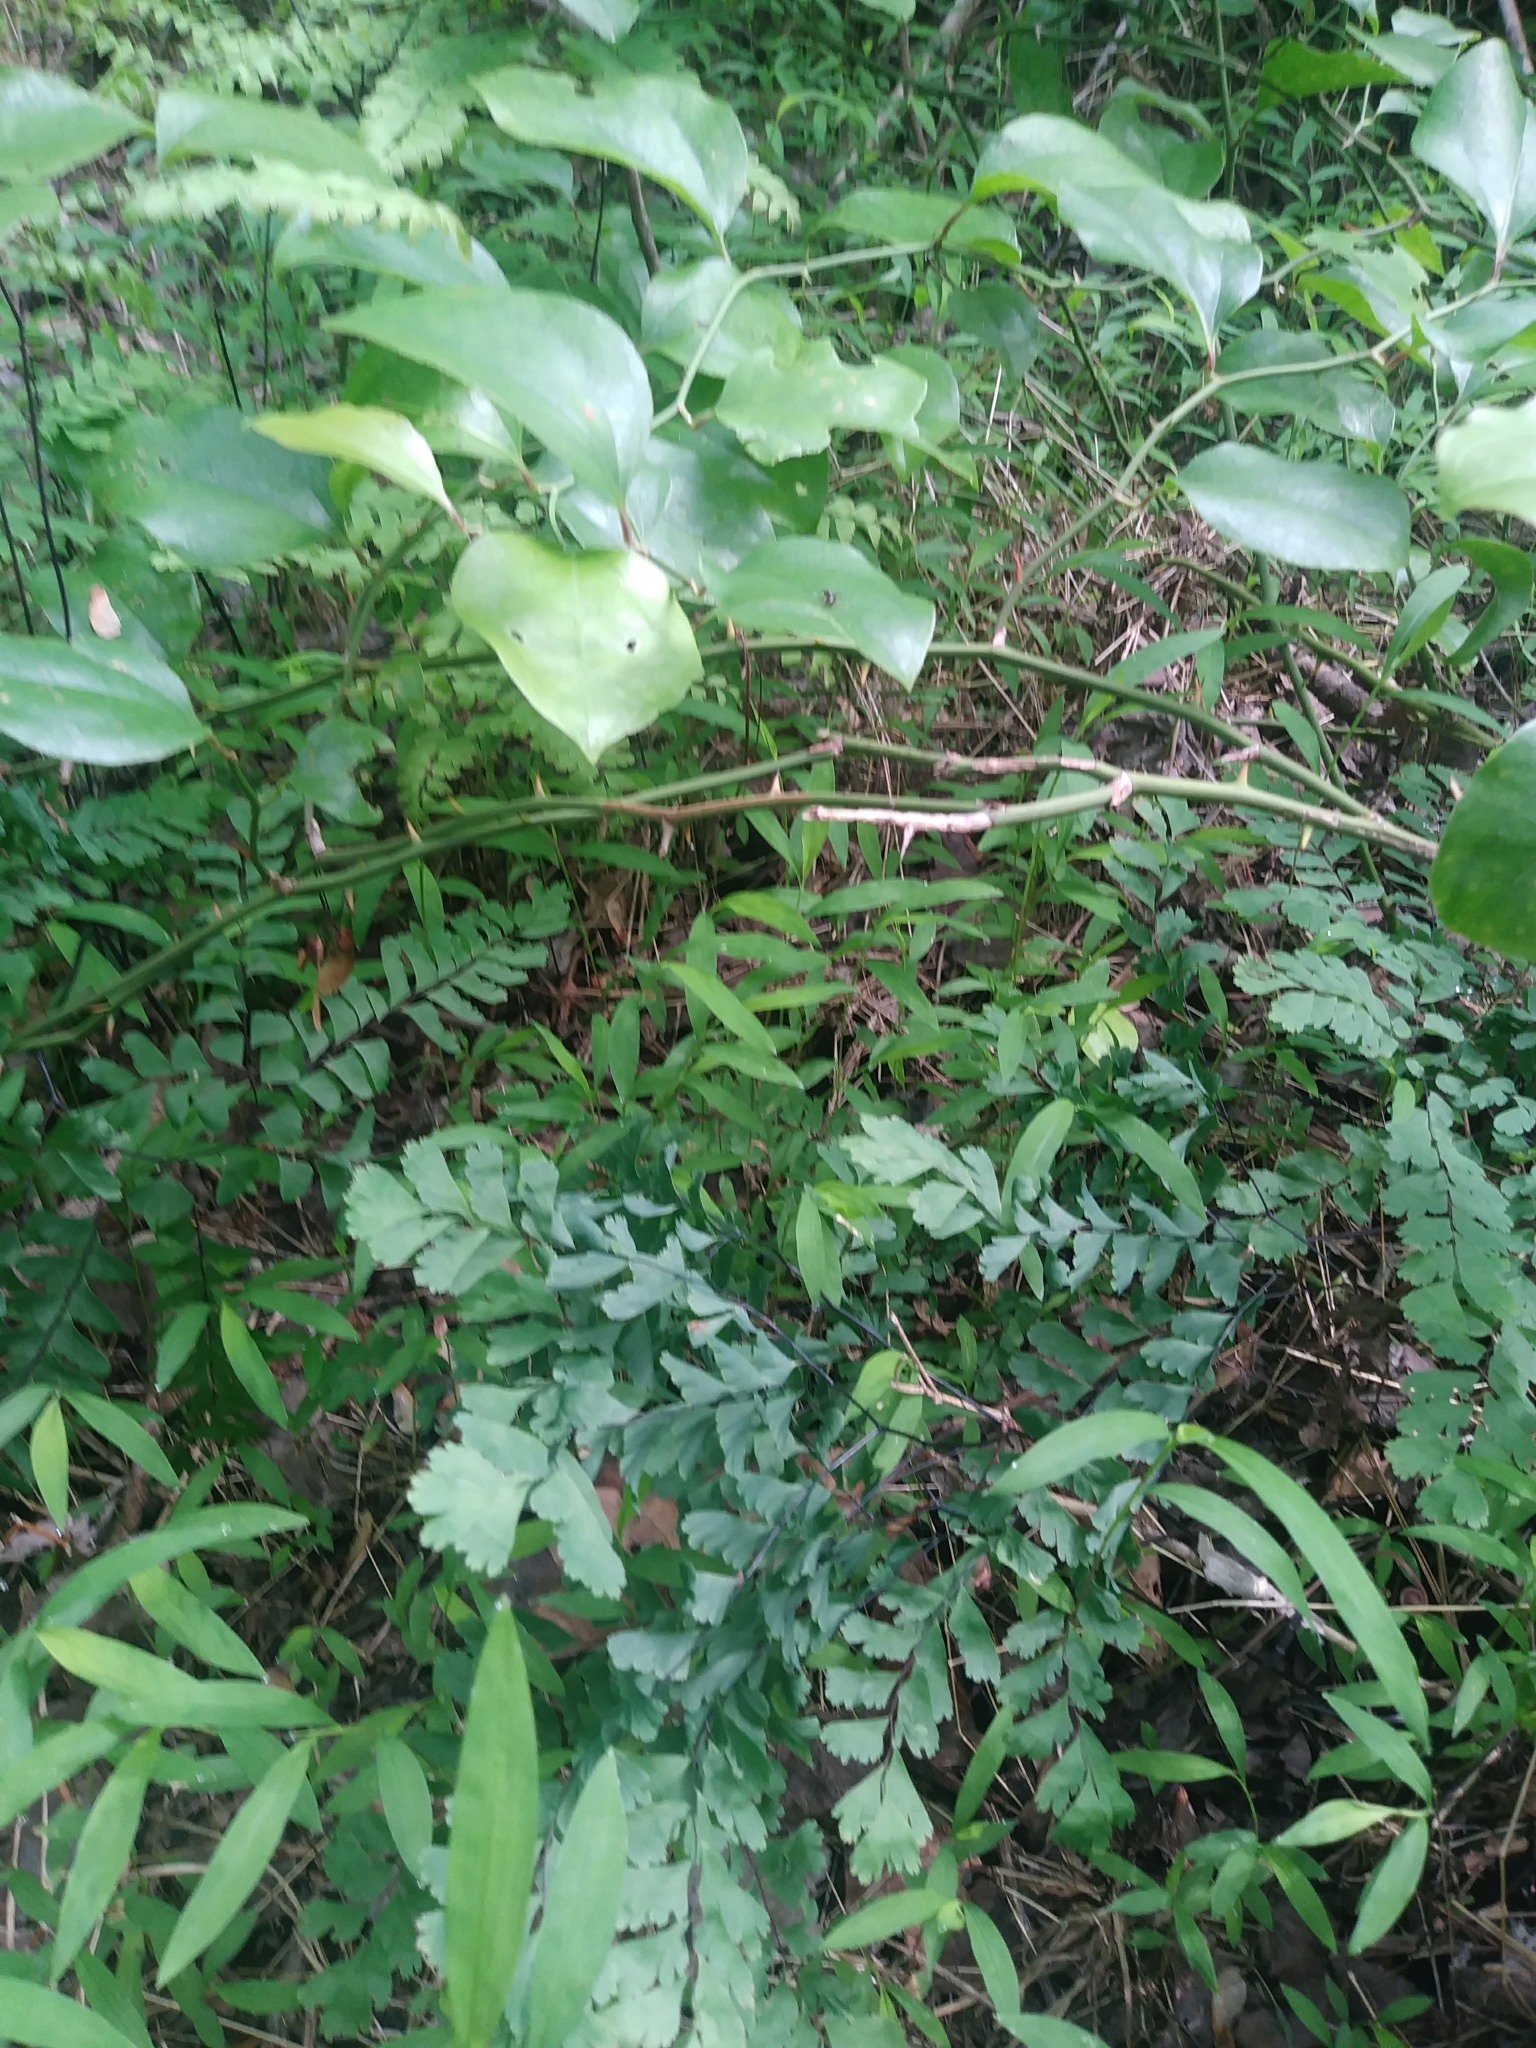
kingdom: Plantae
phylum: Tracheophyta
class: Polypodiopsida
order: Polypodiales
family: Pteridaceae
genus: Adiantum
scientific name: Adiantum pedatum
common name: Five-finger fern
